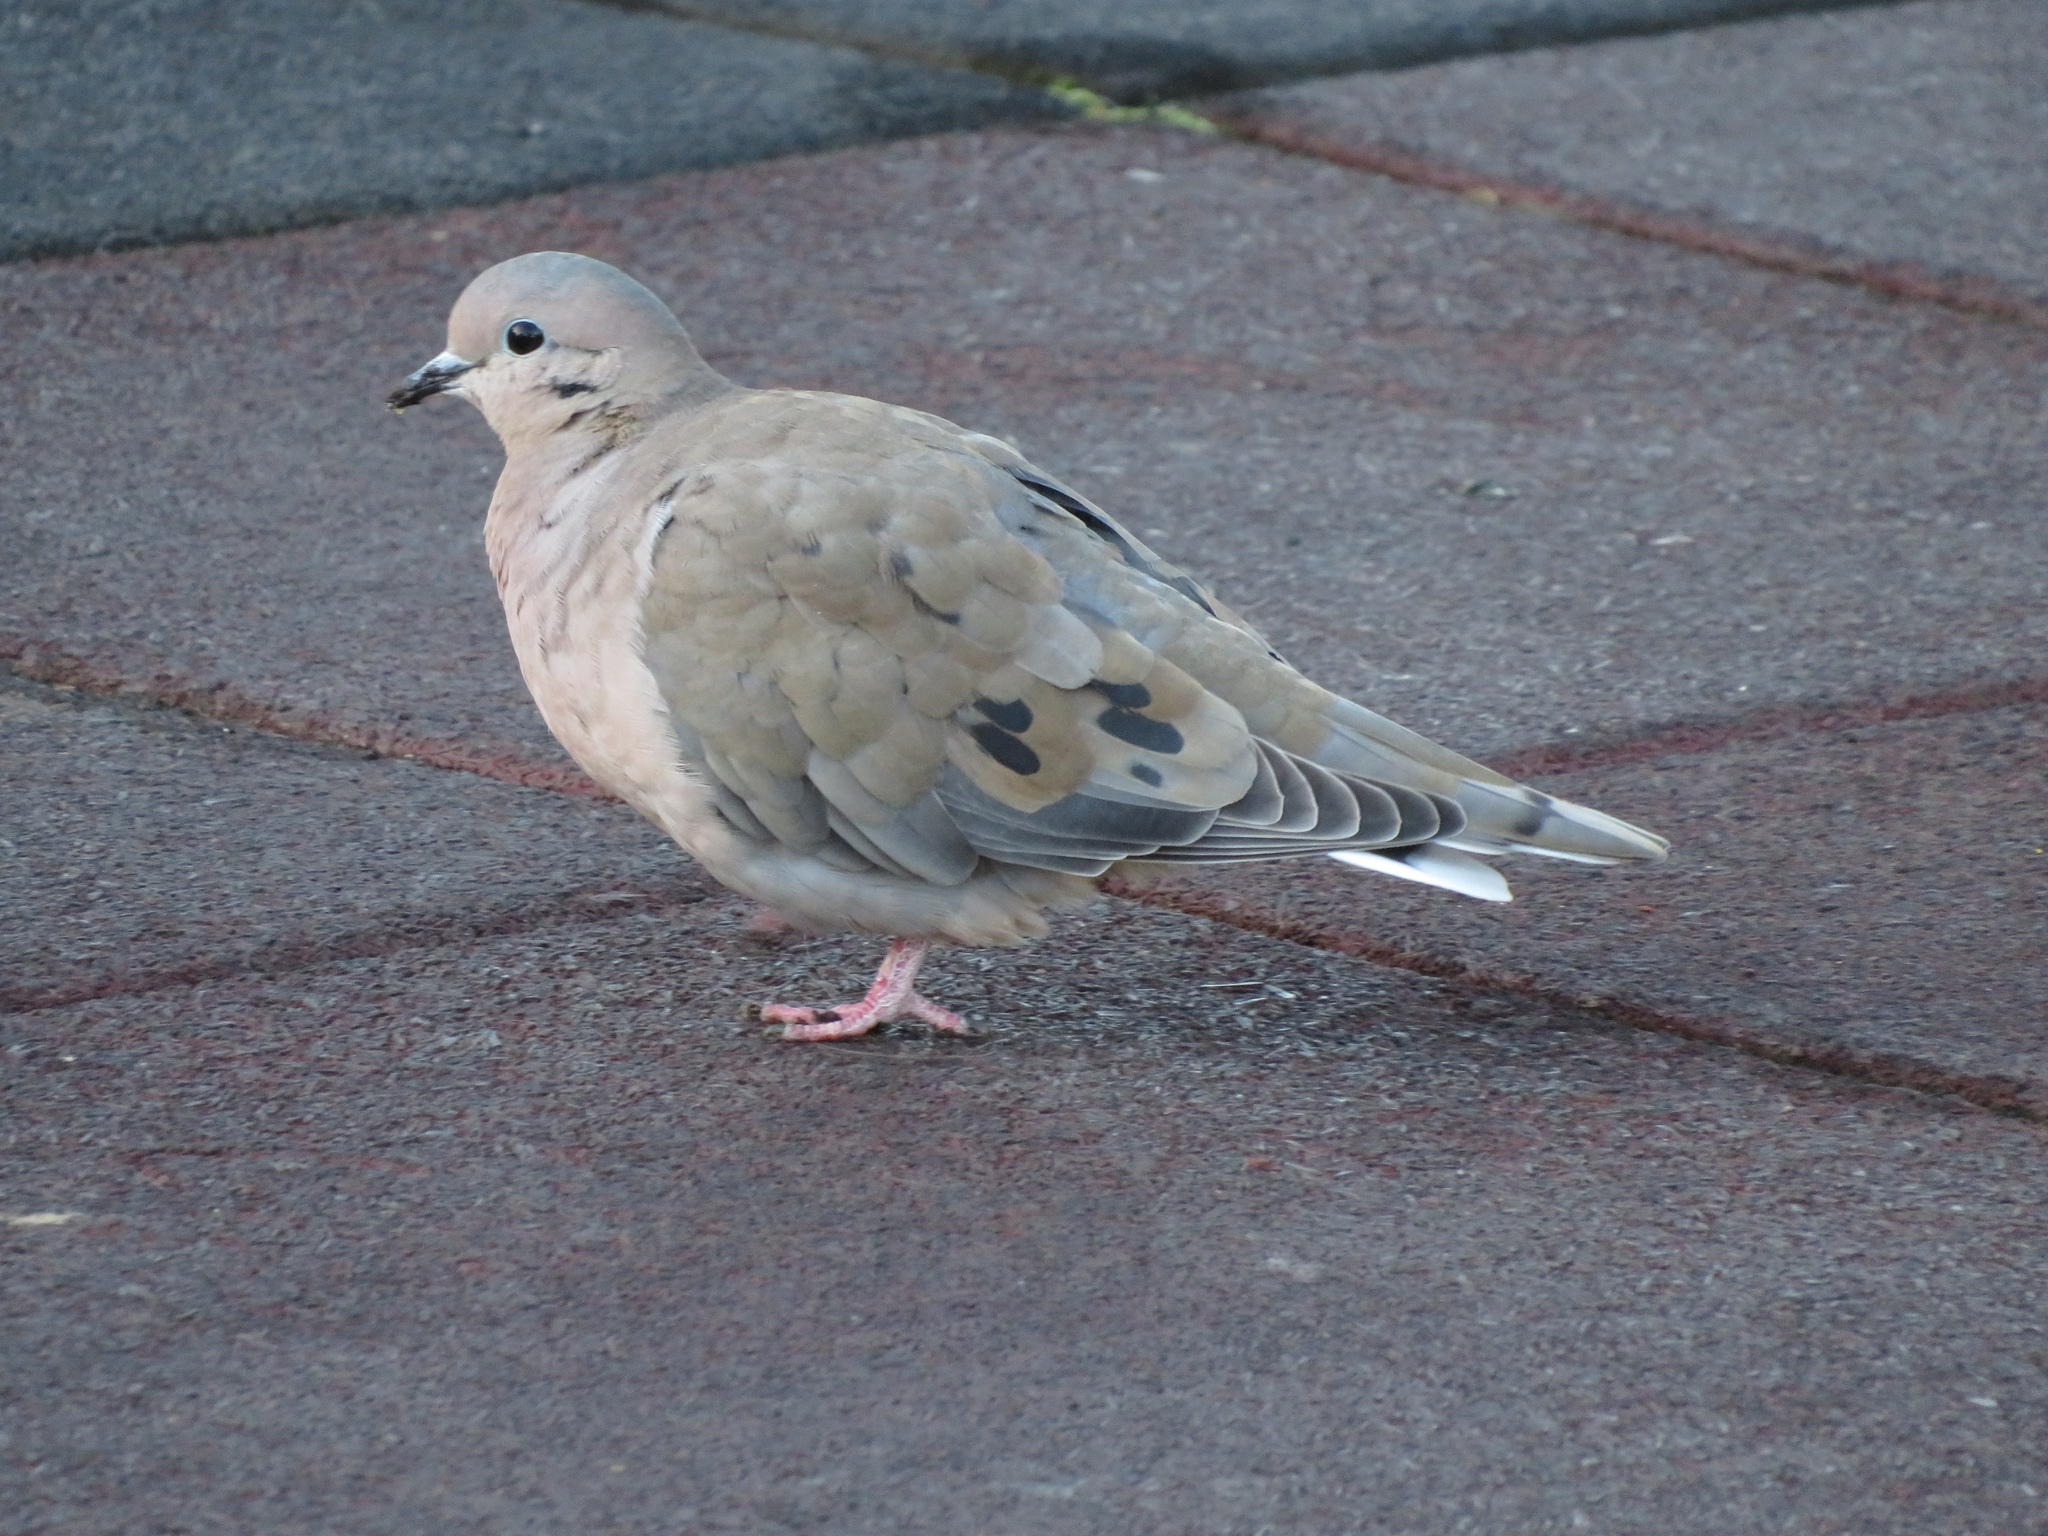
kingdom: Animalia
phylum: Chordata
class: Aves
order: Columbiformes
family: Columbidae
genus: Zenaida
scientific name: Zenaida auriculata
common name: Eared dove
